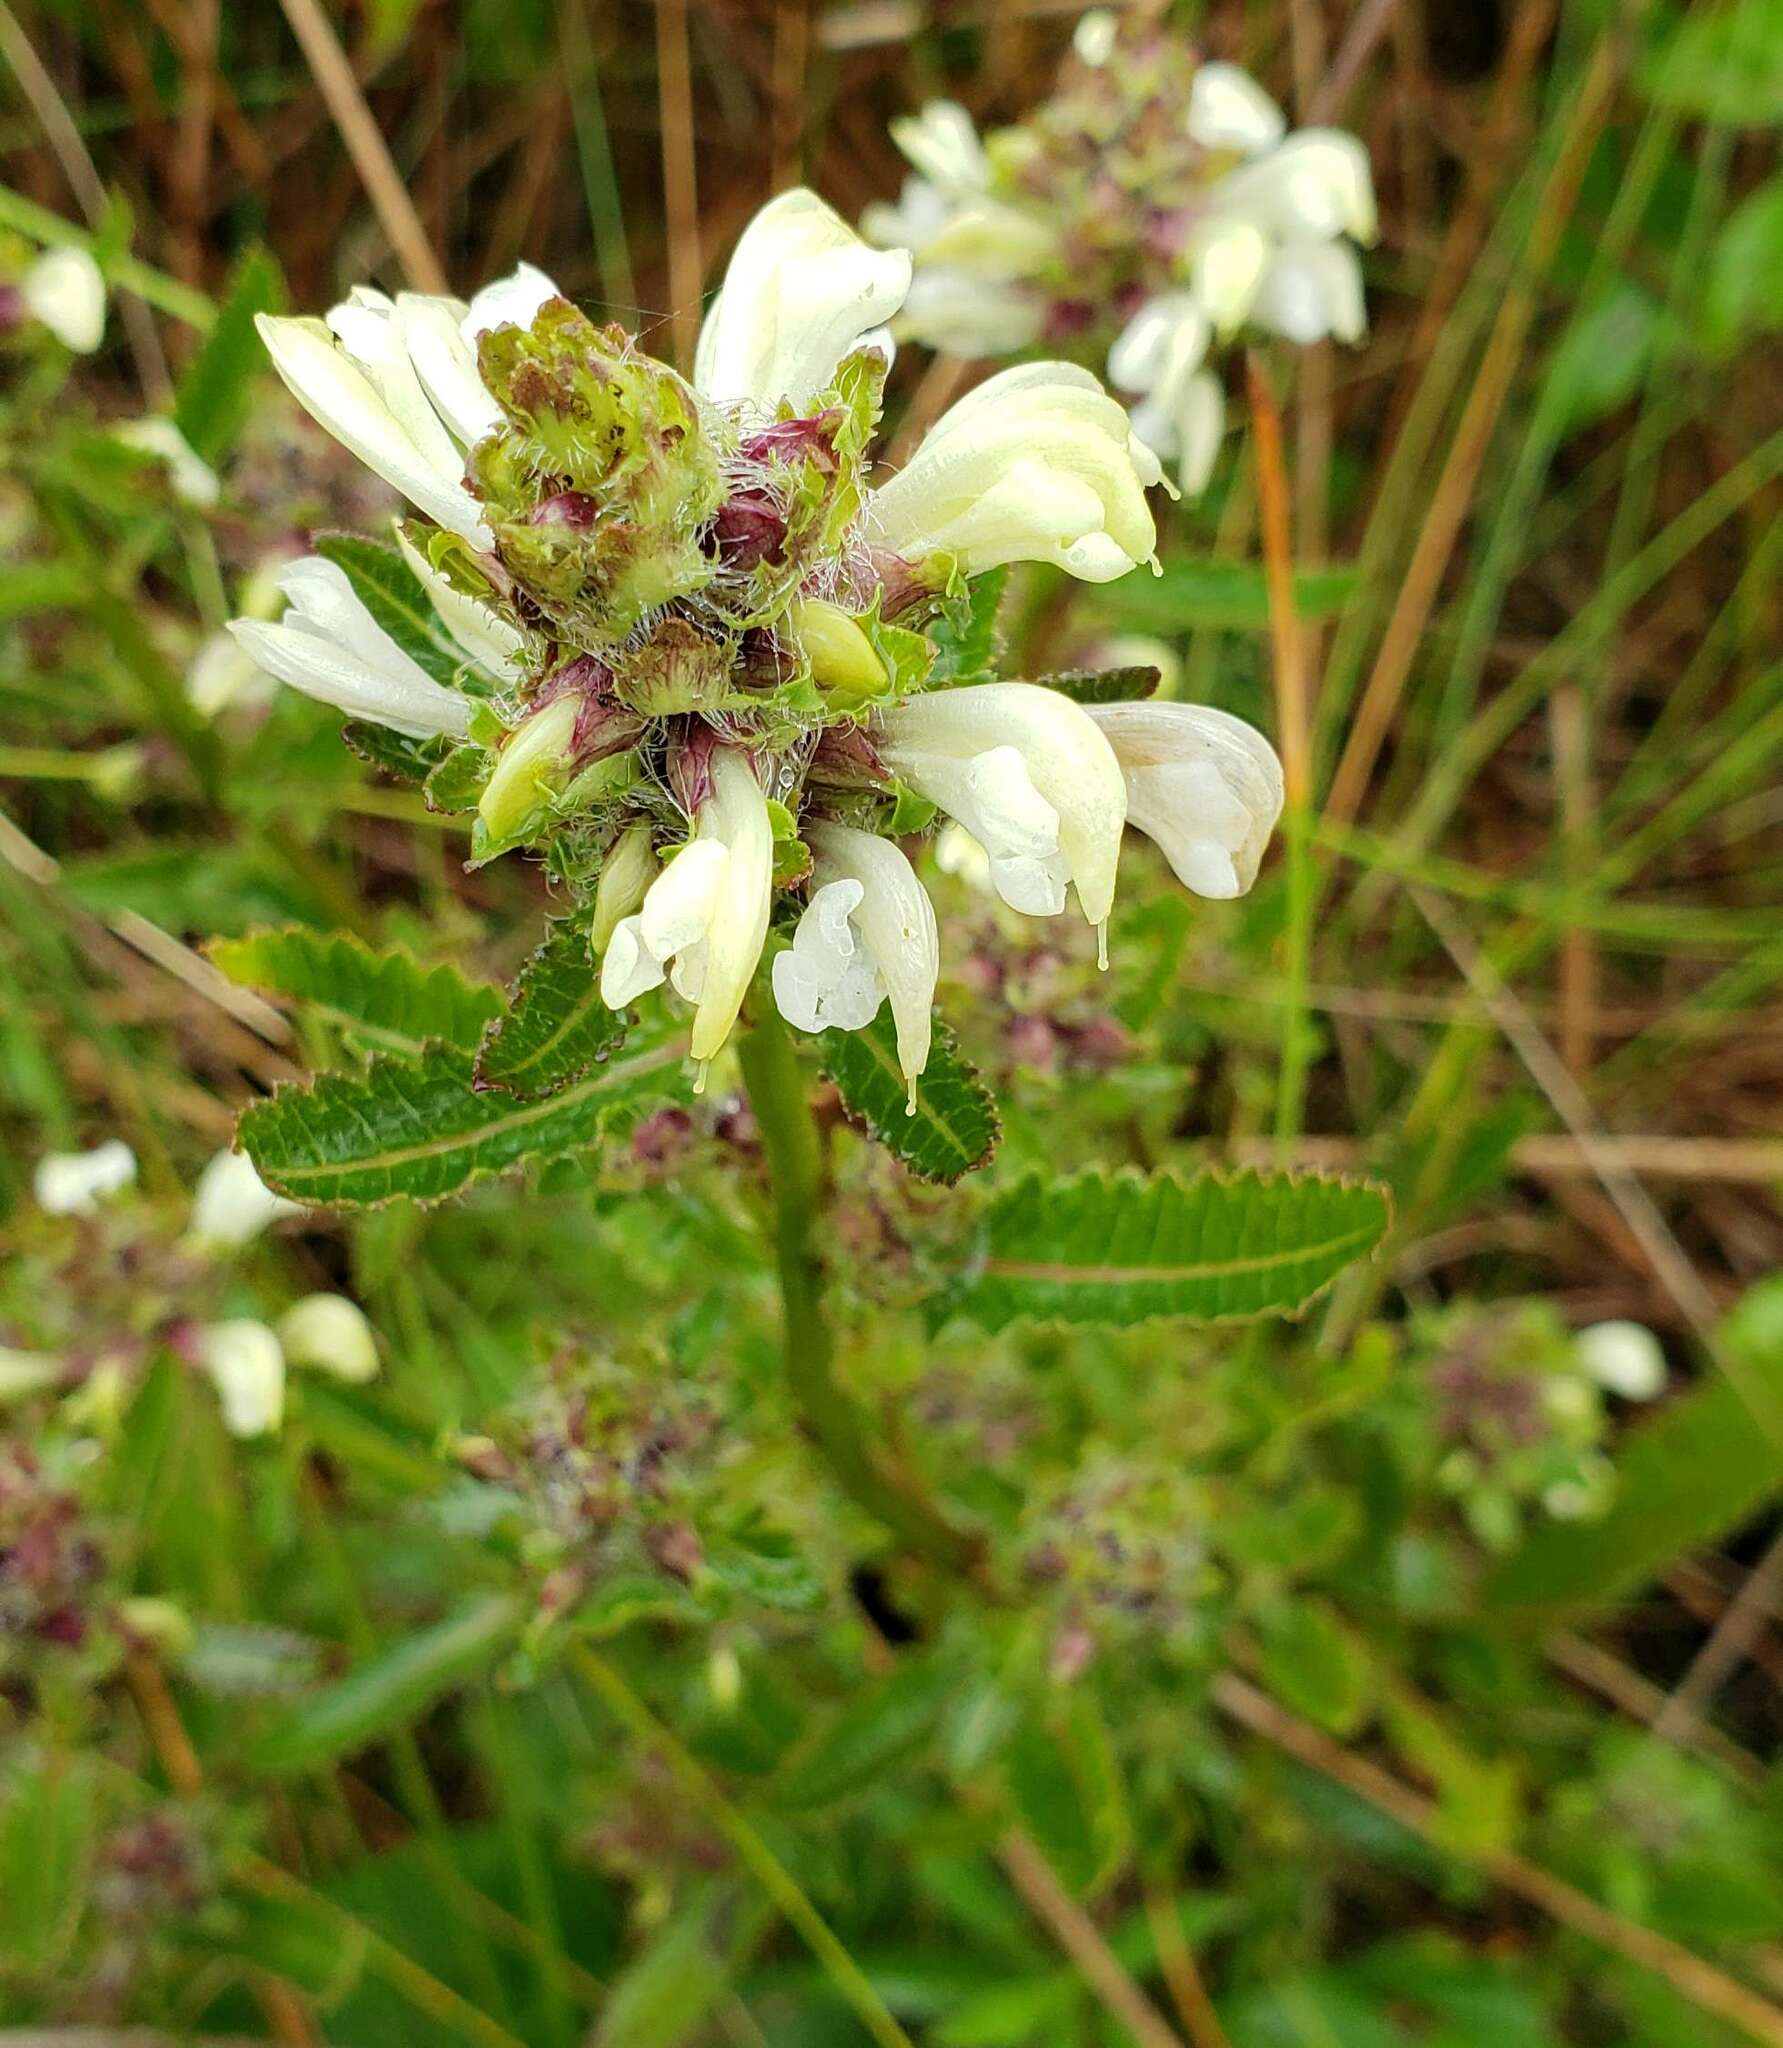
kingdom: Plantae
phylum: Tracheophyta
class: Magnoliopsida
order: Lamiales
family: Orobanchaceae
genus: Pedicularis
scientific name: Pedicularis lanceolata
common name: Swamp lousewort
